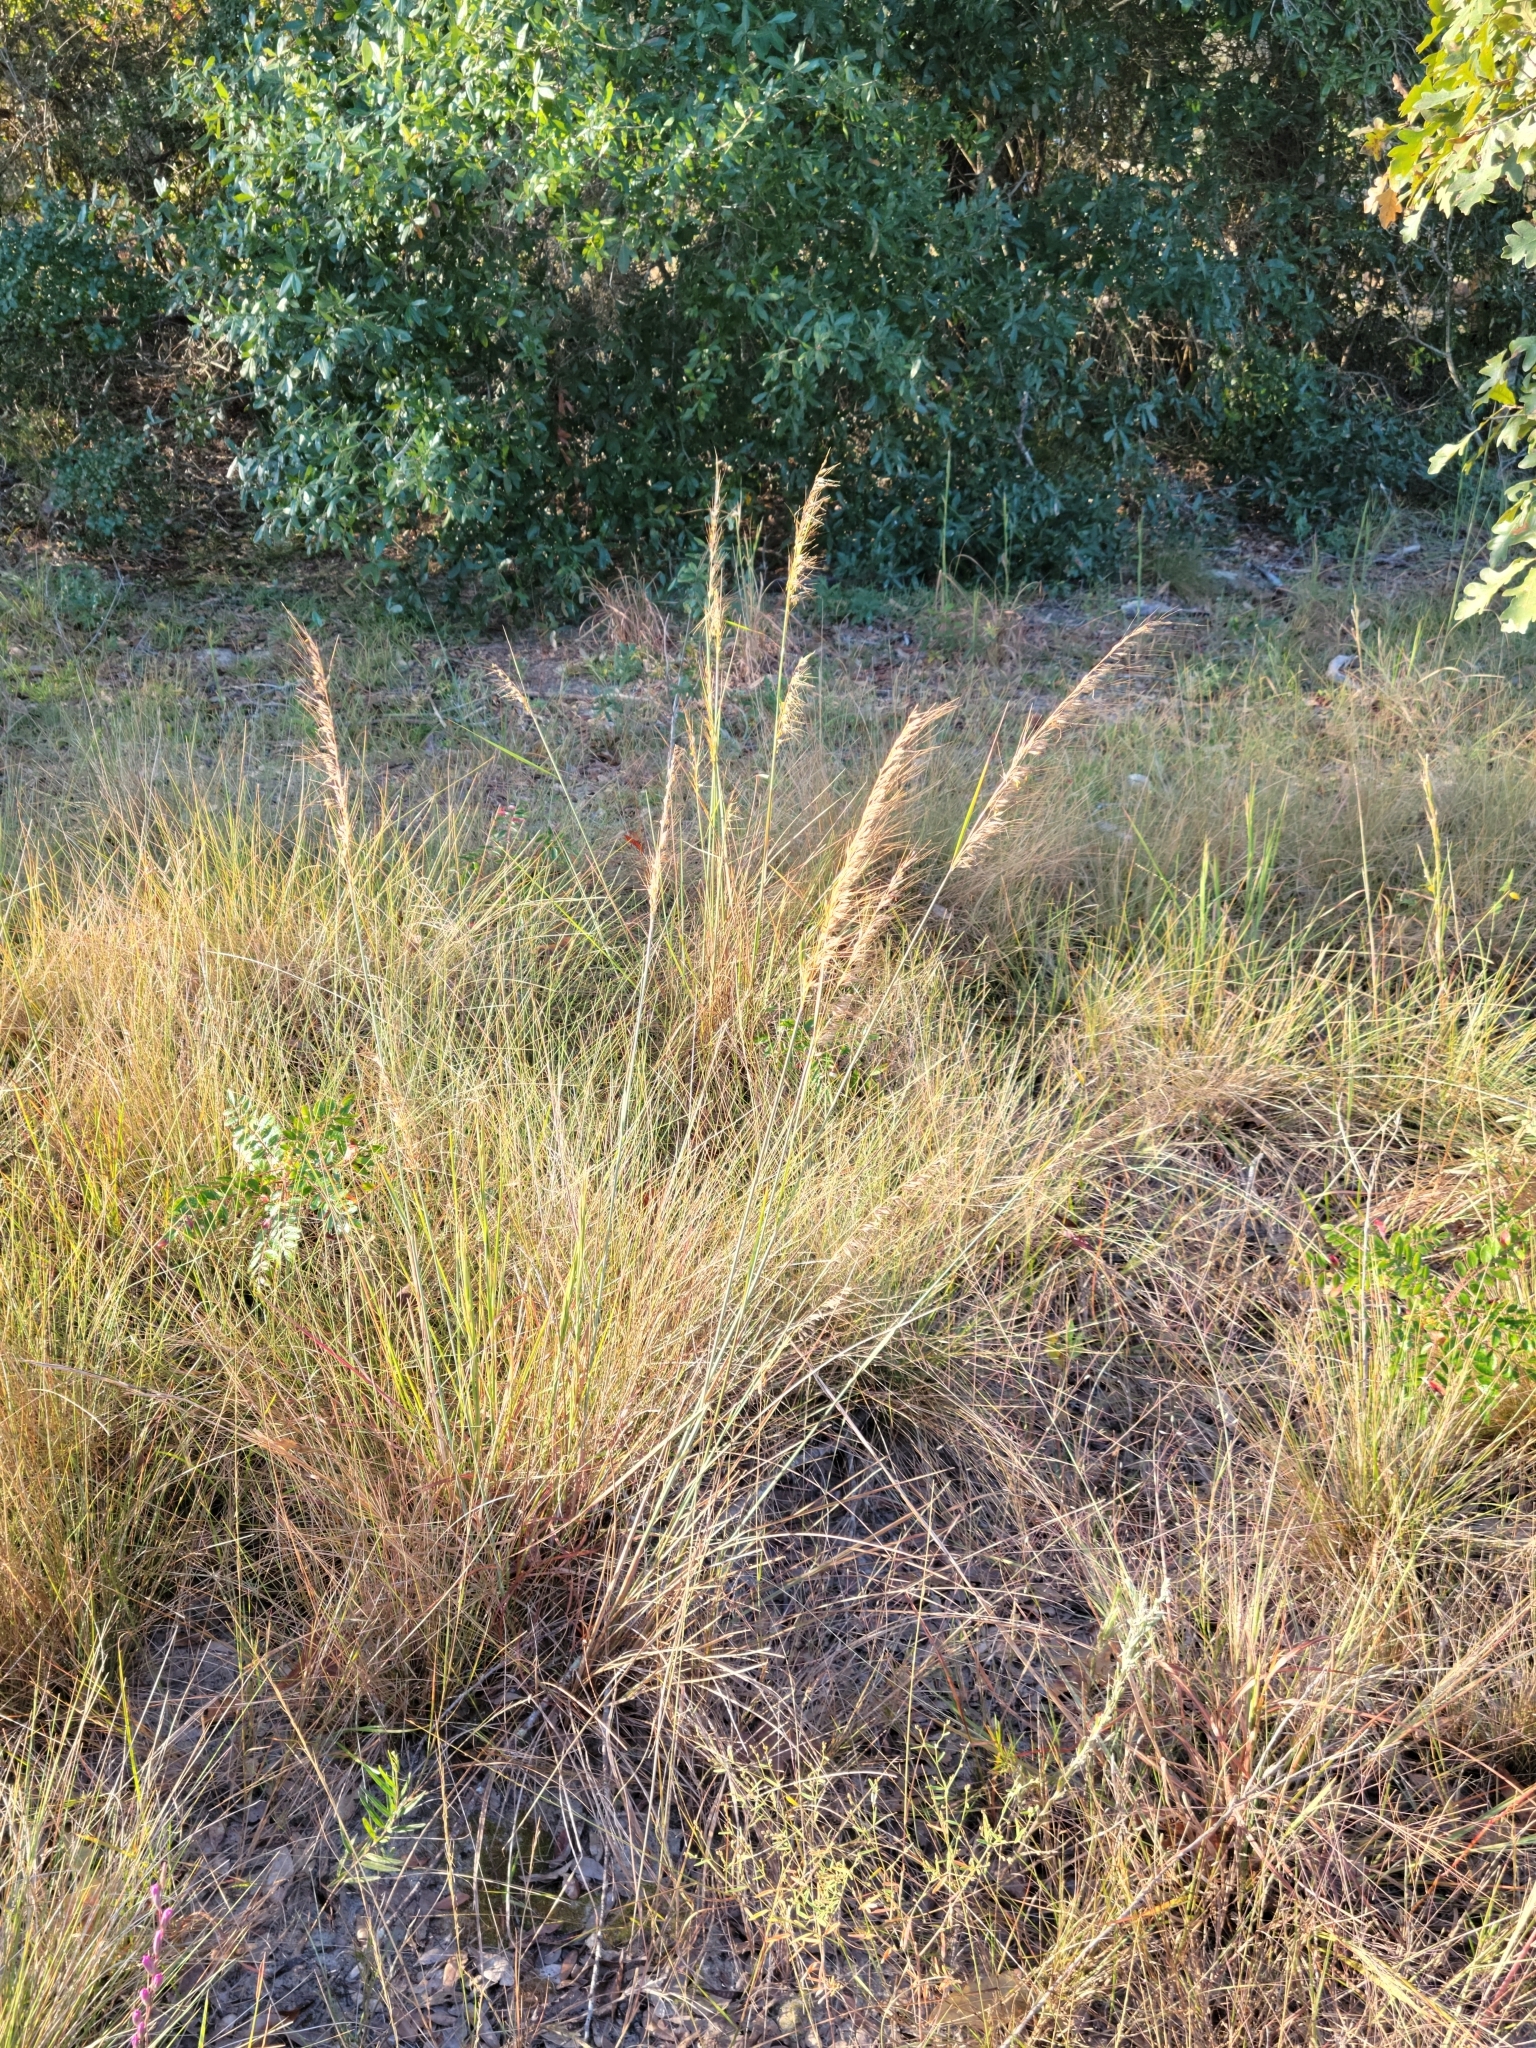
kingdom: Plantae
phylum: Tracheophyta
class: Liliopsida
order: Poales
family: Poaceae
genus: Sorghastrum
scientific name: Sorghastrum secundum
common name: Lopsided indian grass
